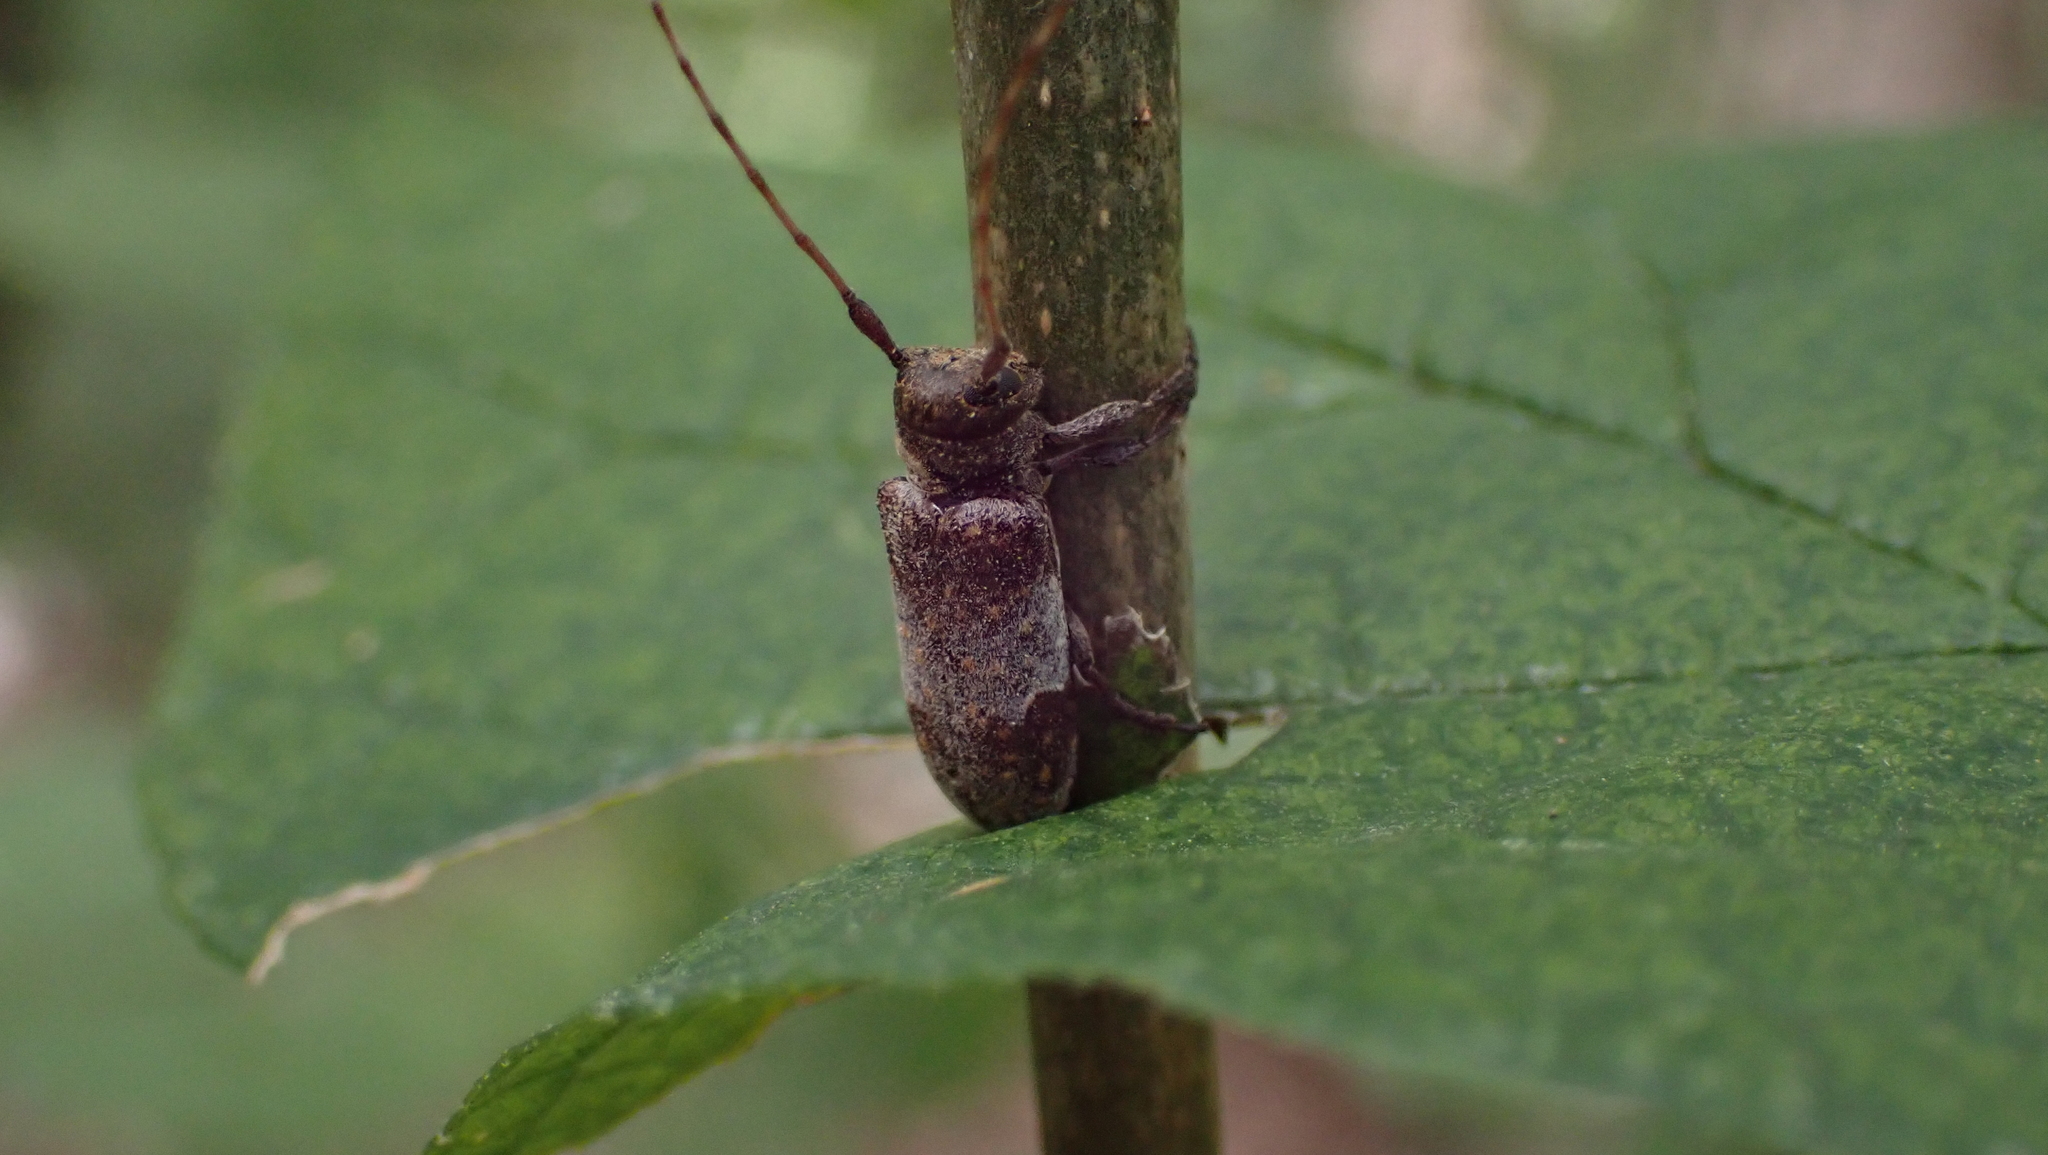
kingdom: Animalia
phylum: Arthropoda
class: Insecta
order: Coleoptera
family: Cerambycidae
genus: Oncideres
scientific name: Oncideres cingulata
